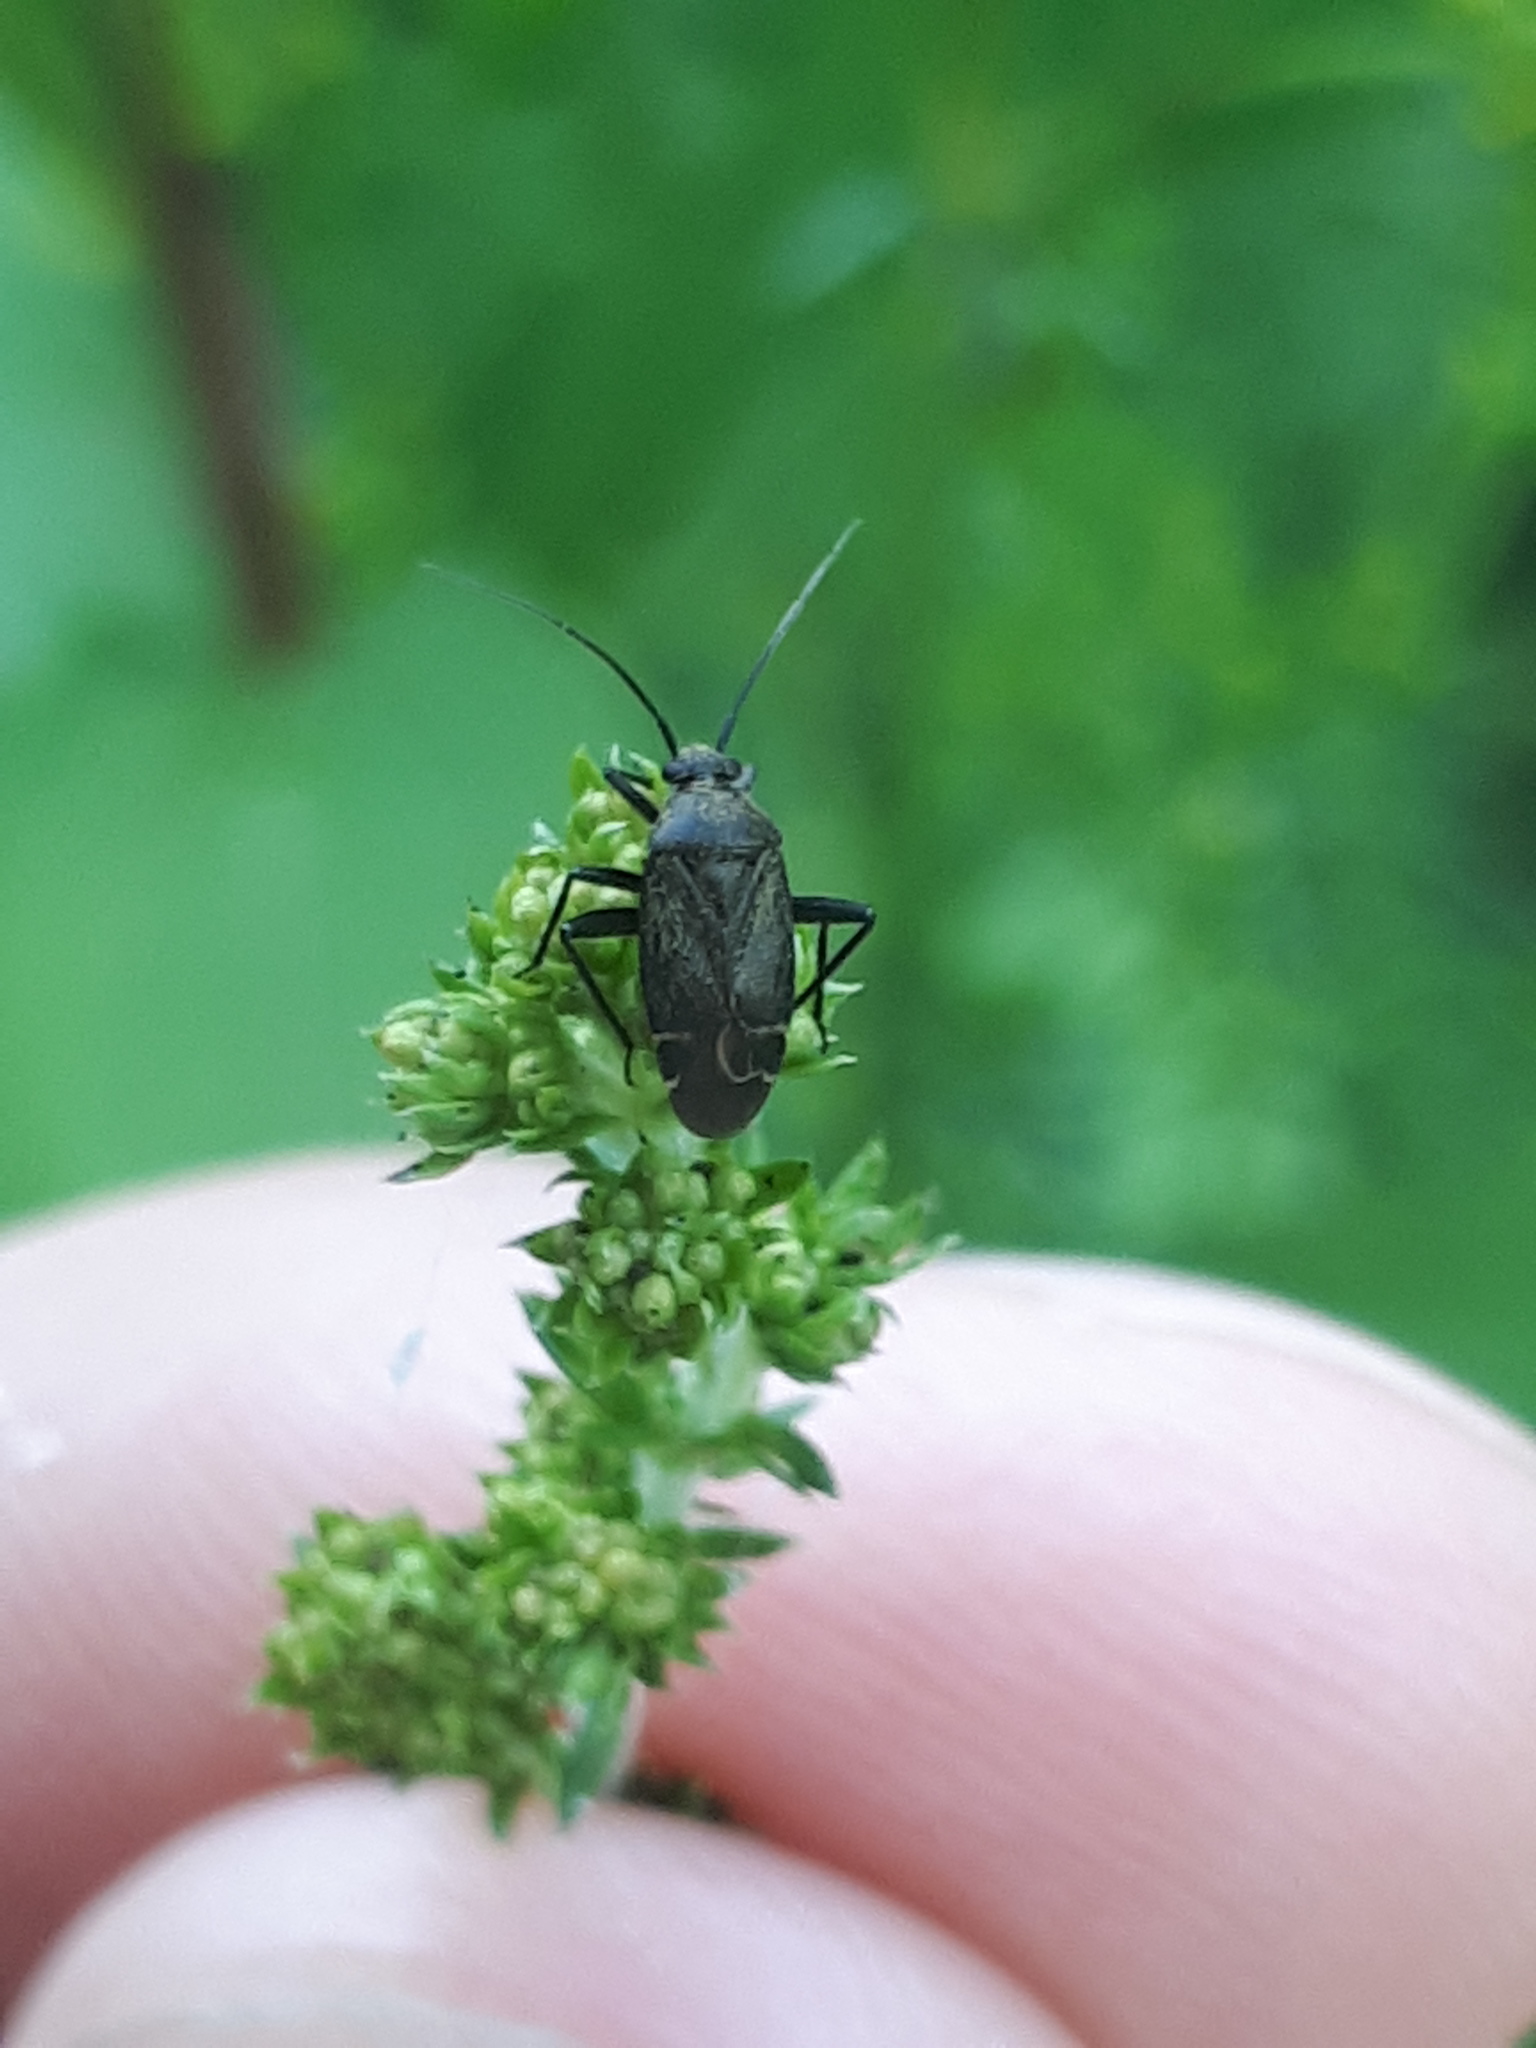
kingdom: Animalia
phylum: Arthropoda
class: Insecta
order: Hemiptera
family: Miridae
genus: Polymerus
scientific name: Polymerus nigritus
